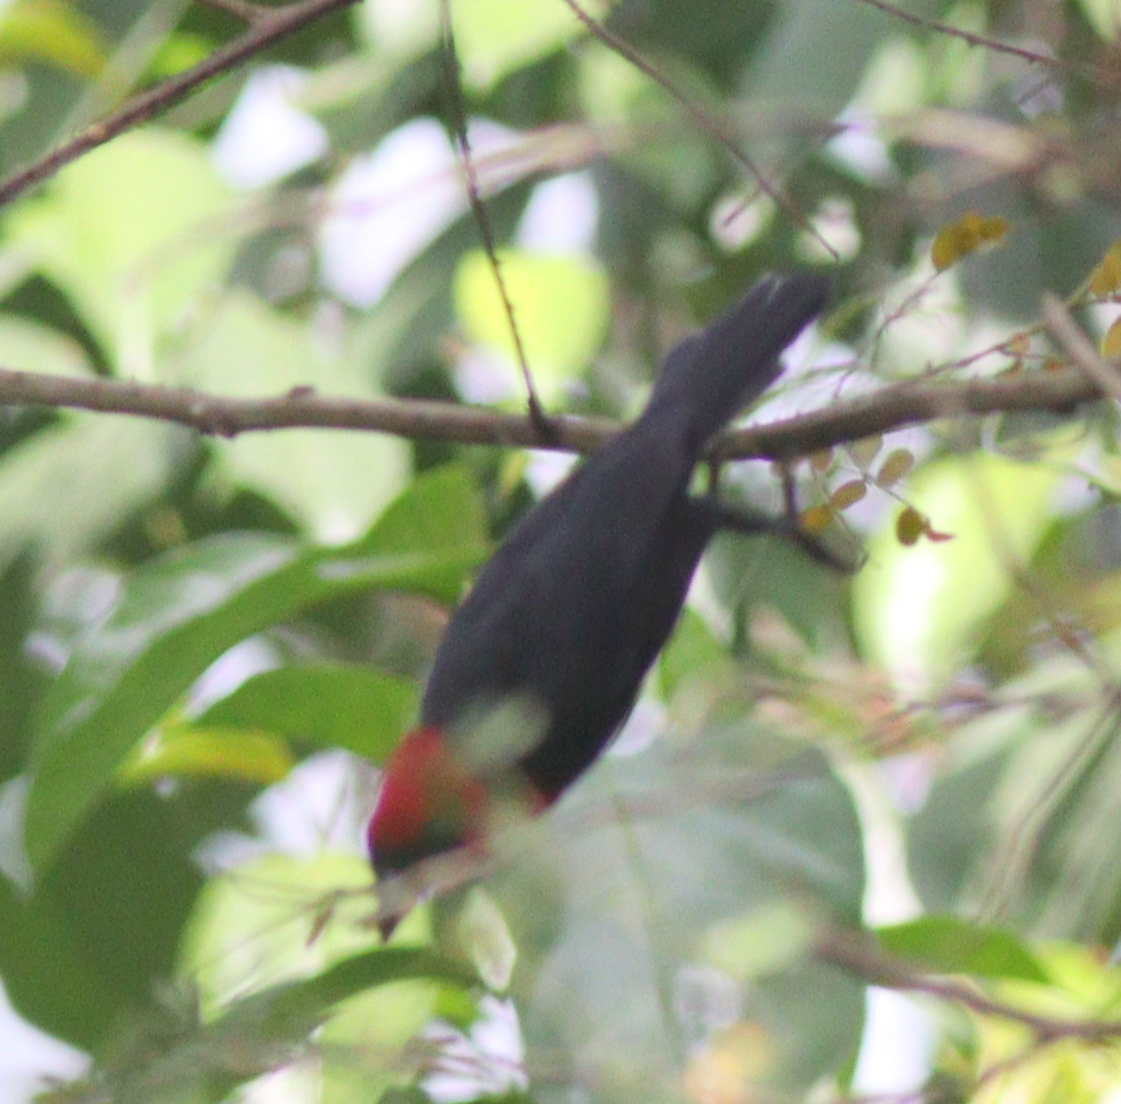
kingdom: Animalia
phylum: Chordata
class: Aves
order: Passeriformes
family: Ploceidae
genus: Malimbus
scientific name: Malimbus malimbicus
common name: Crested malimbe
